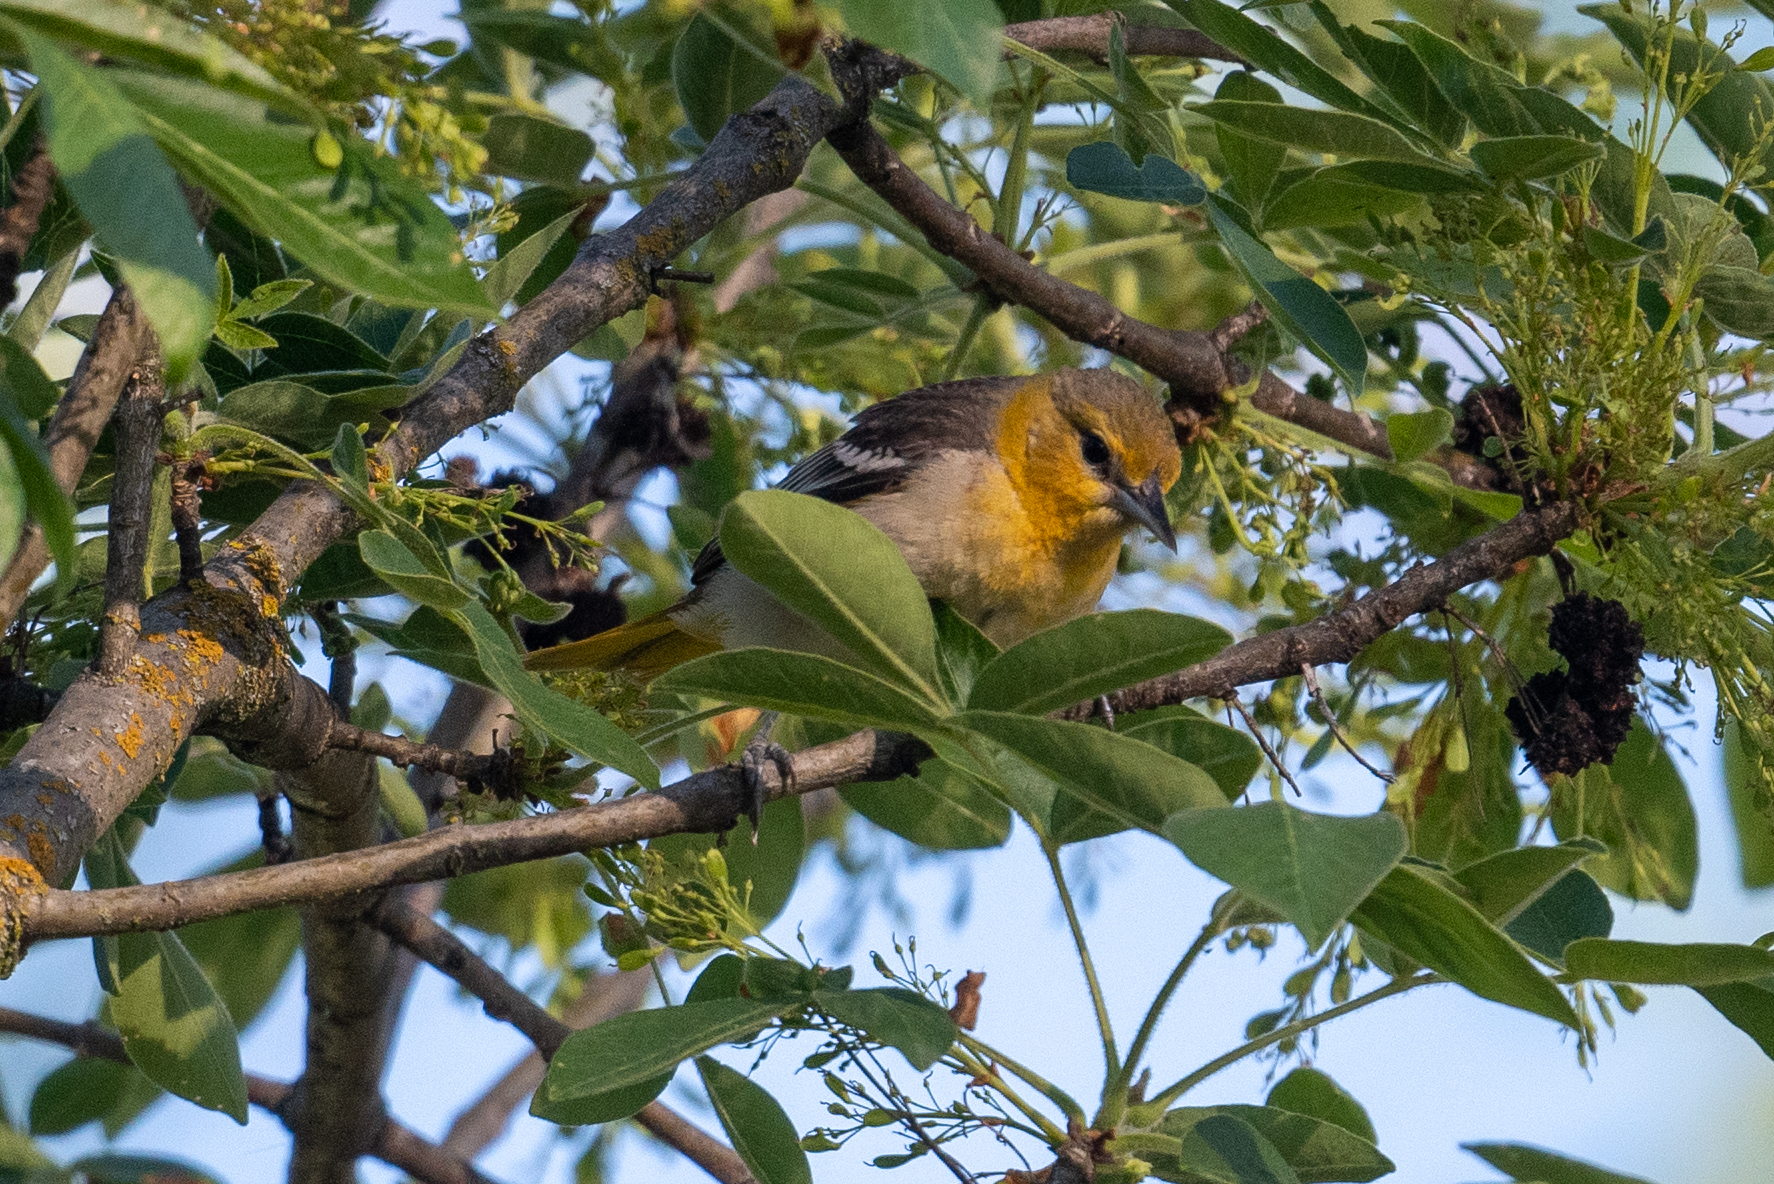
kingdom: Animalia
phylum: Chordata
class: Aves
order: Passeriformes
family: Icteridae
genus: Icterus
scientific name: Icterus bullockii
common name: Bullock's oriole
